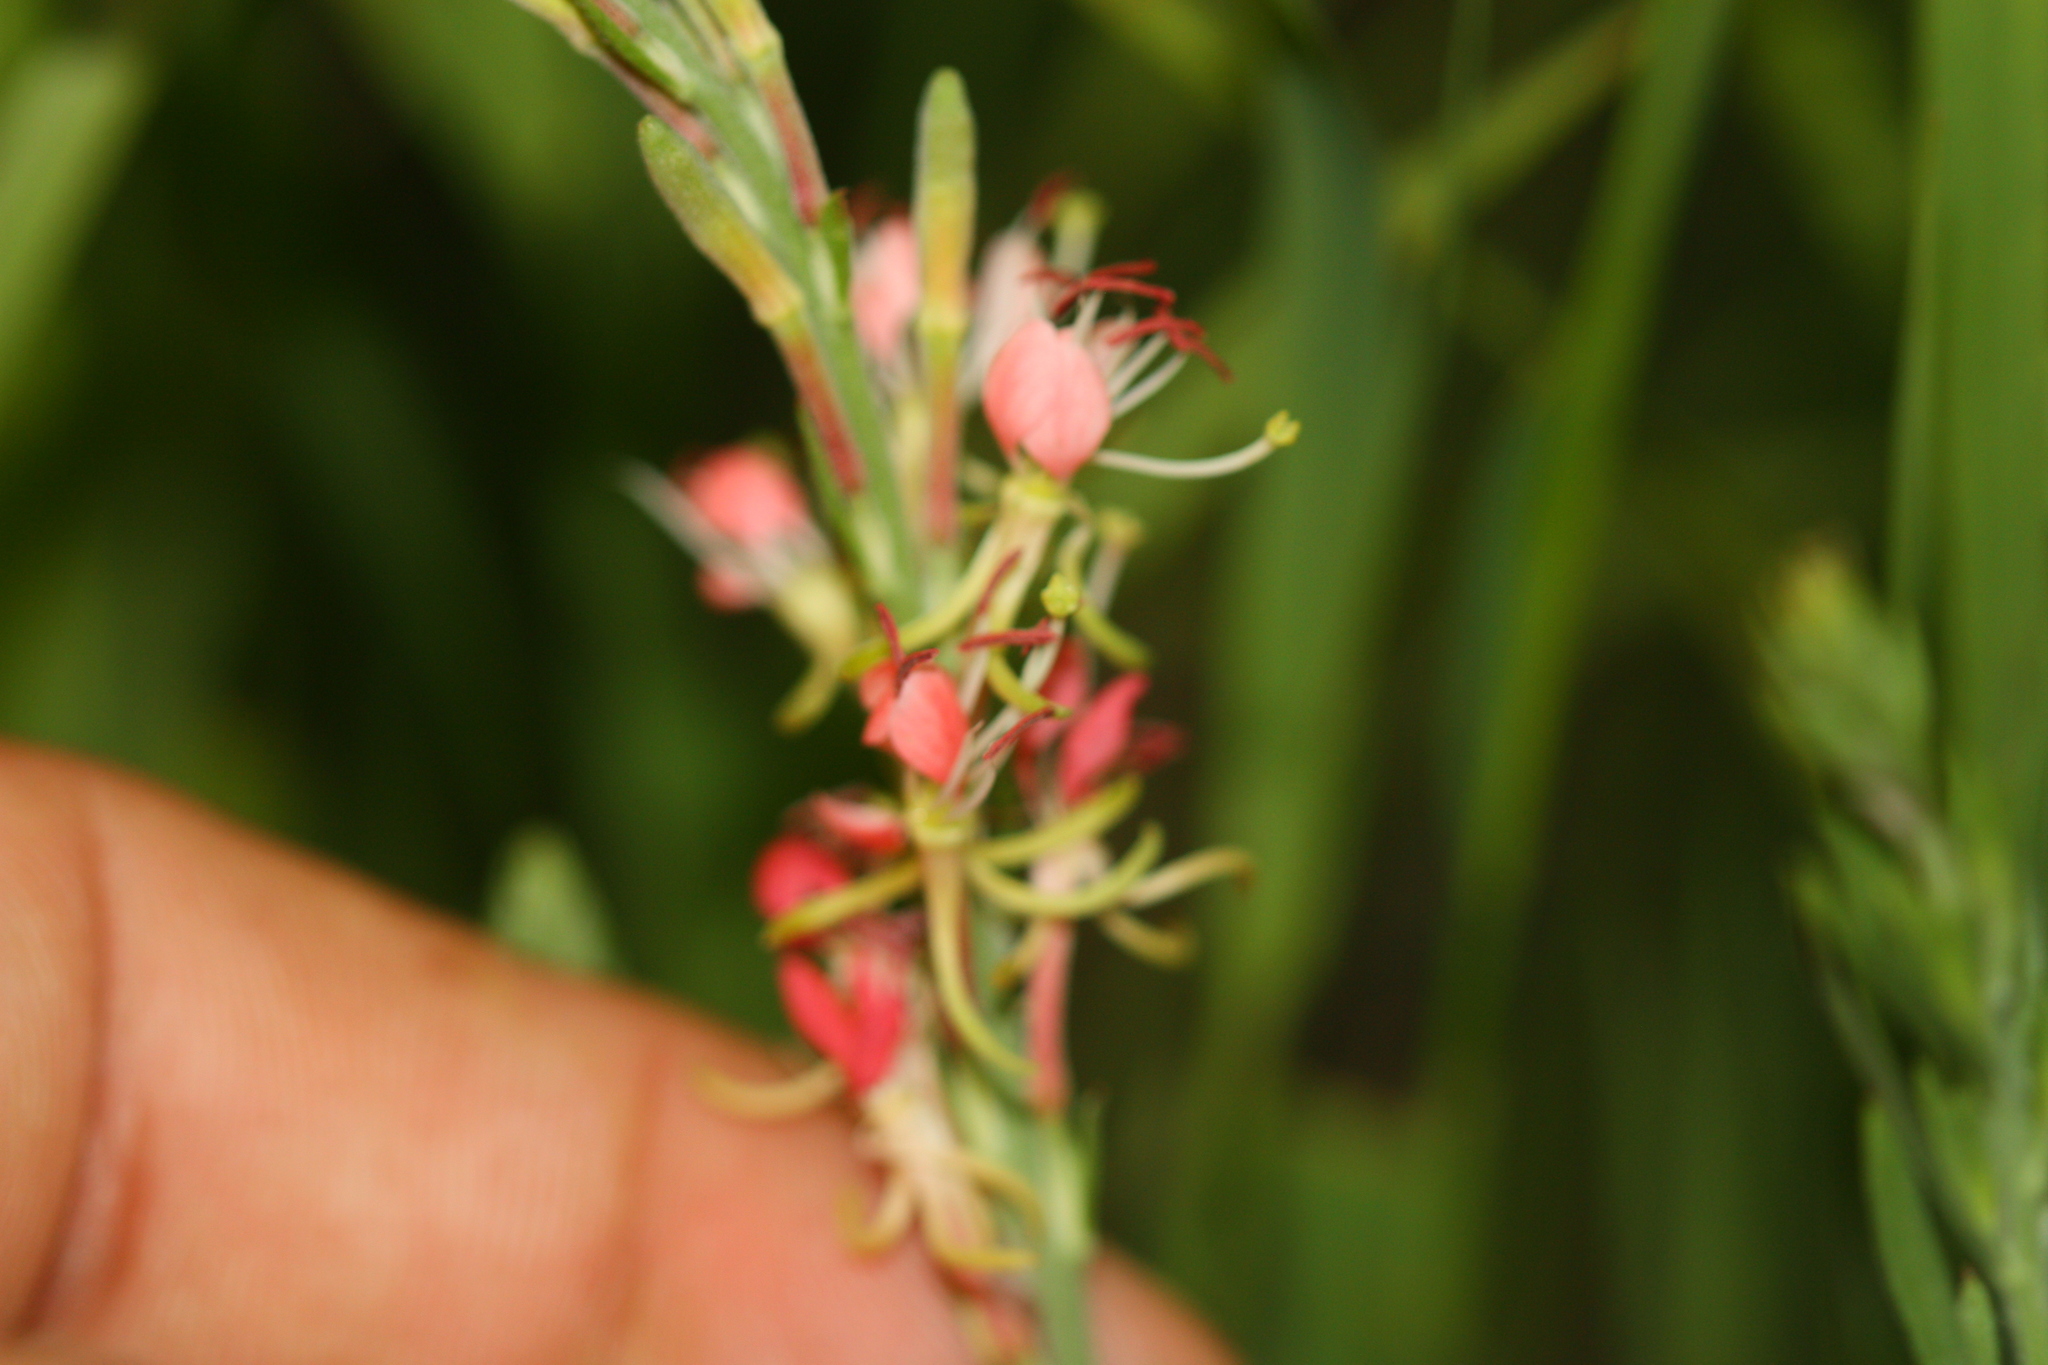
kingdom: Plantae
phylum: Tracheophyta
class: Magnoliopsida
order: Myrtales
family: Onagraceae
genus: Oenothera
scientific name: Oenothera suffrutescens
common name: Scarlet beeblossom
